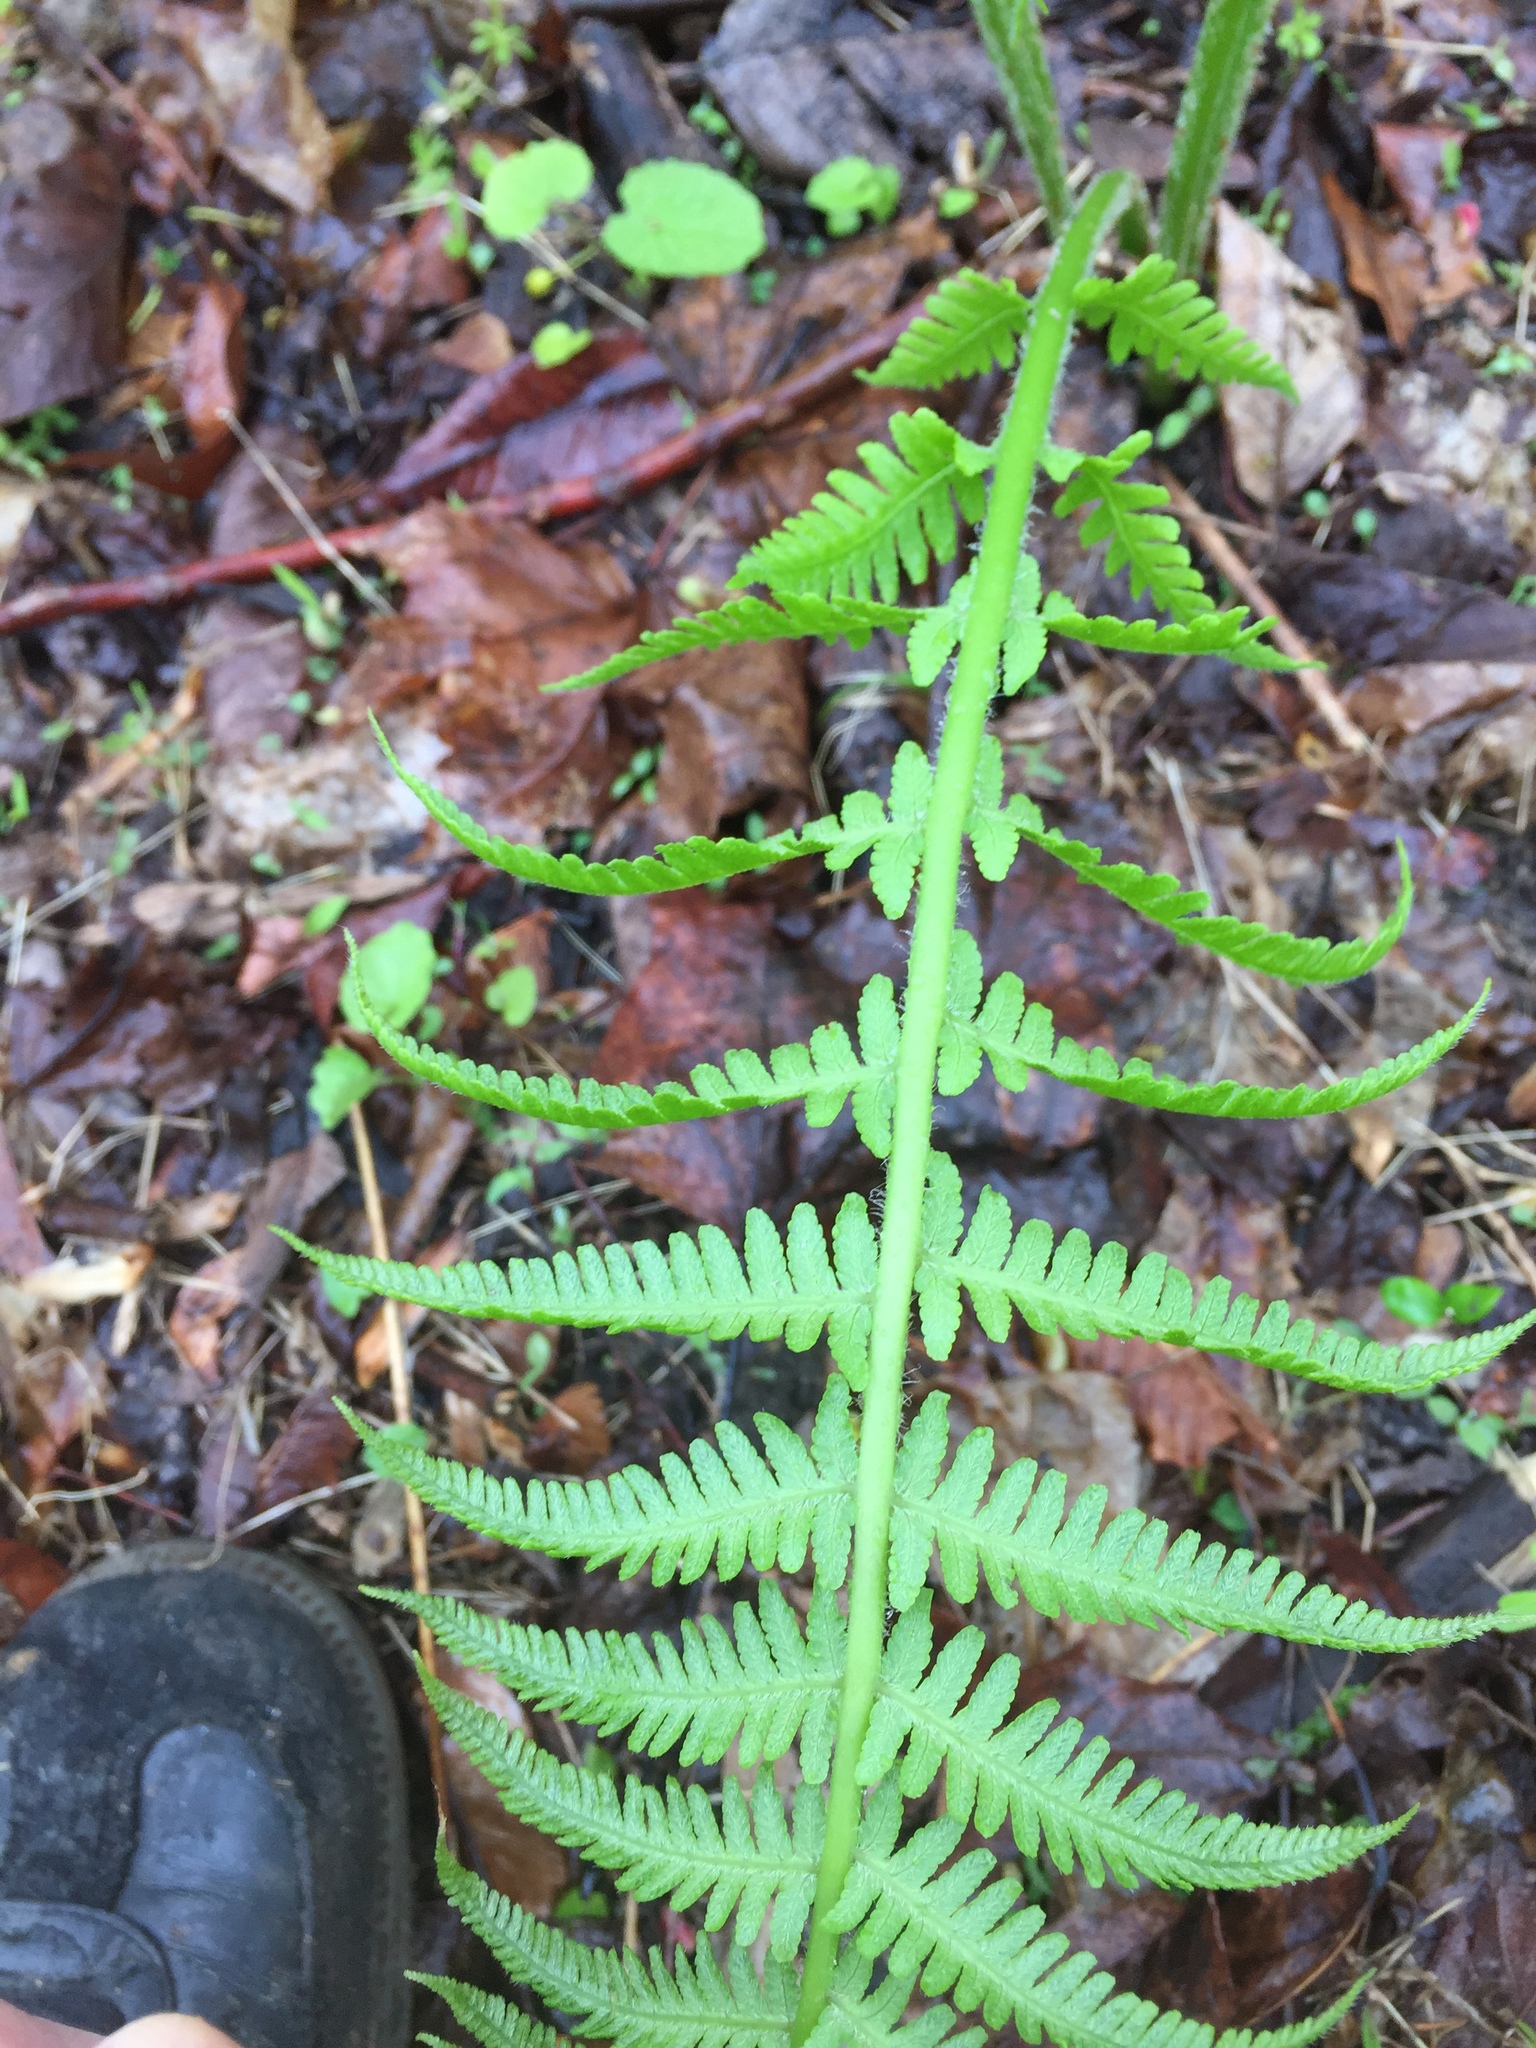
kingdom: Plantae
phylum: Tracheophyta
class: Polypodiopsida
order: Polypodiales
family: Athyriaceae
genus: Deparia
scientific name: Deparia acrostichoides
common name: Silver false spleenwort
